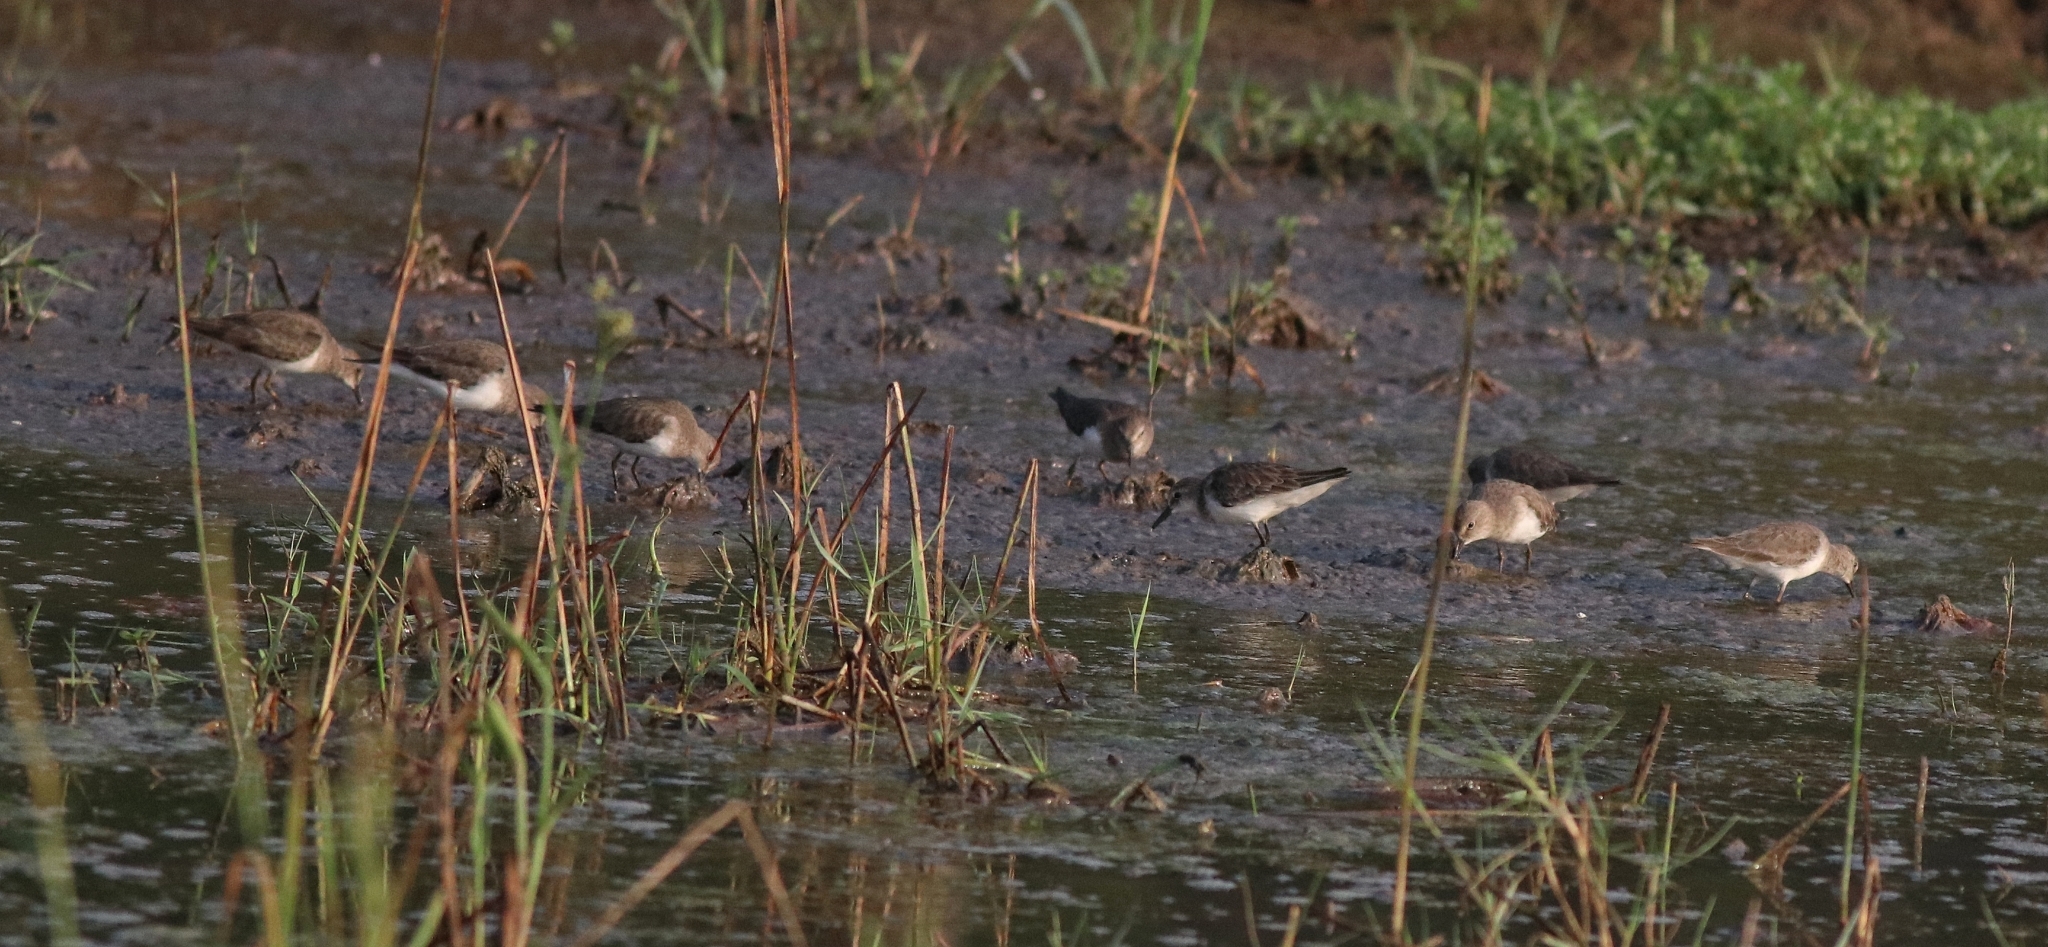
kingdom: Animalia
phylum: Chordata
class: Aves
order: Charadriiformes
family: Scolopacidae
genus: Calidris
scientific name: Calidris temminckii
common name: Temminck's stint
